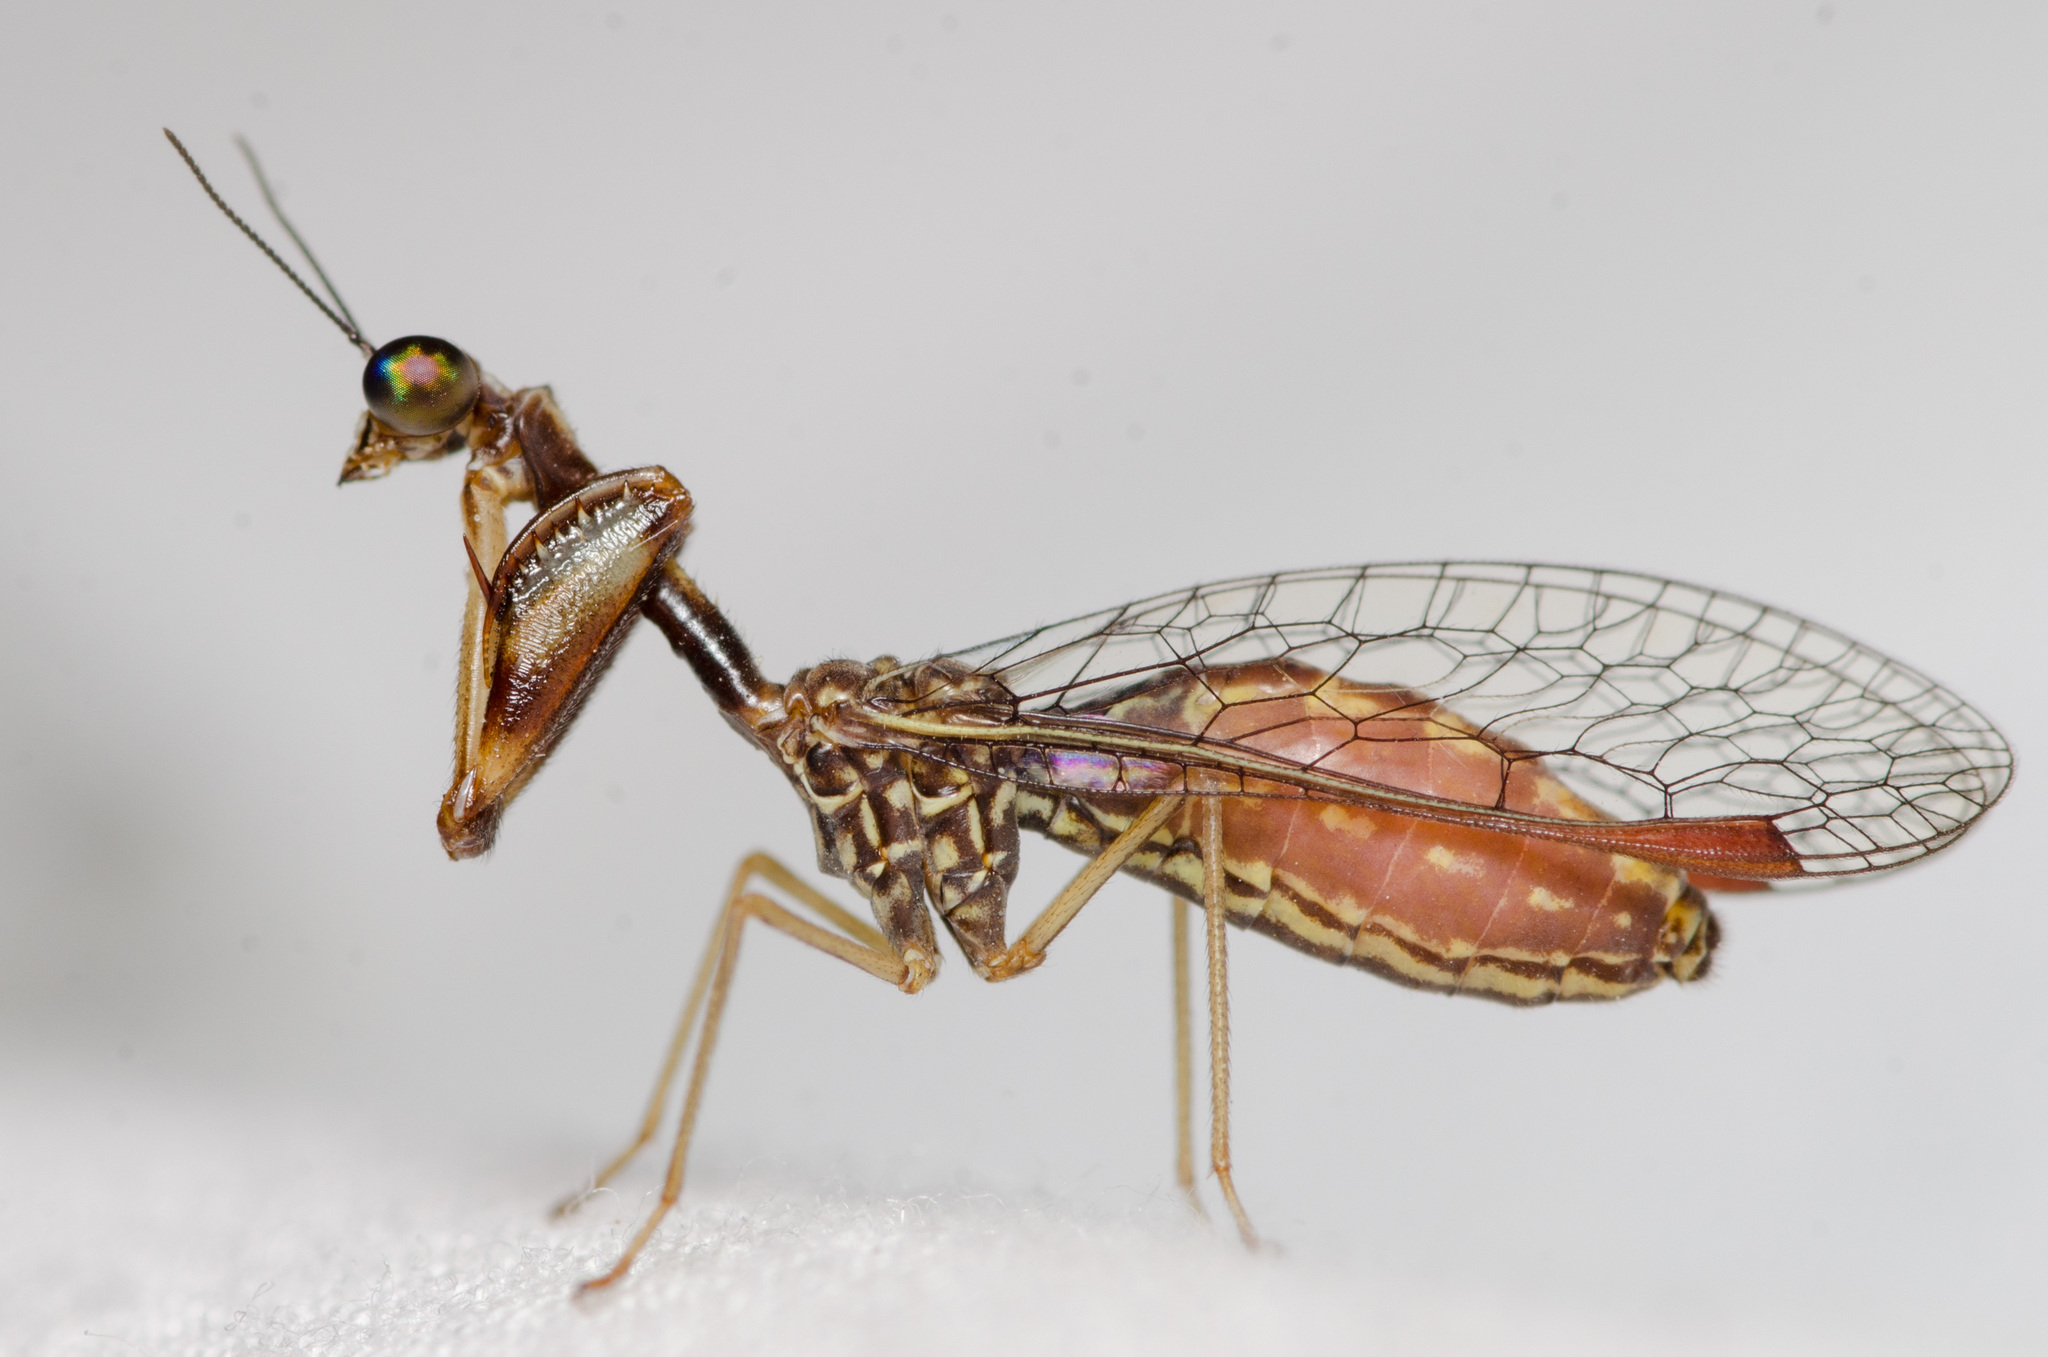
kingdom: Animalia
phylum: Arthropoda
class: Insecta
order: Neuroptera
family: Mantispidae
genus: Leptomantispa
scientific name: Leptomantispa pulchella
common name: Stevens's mantidfly
